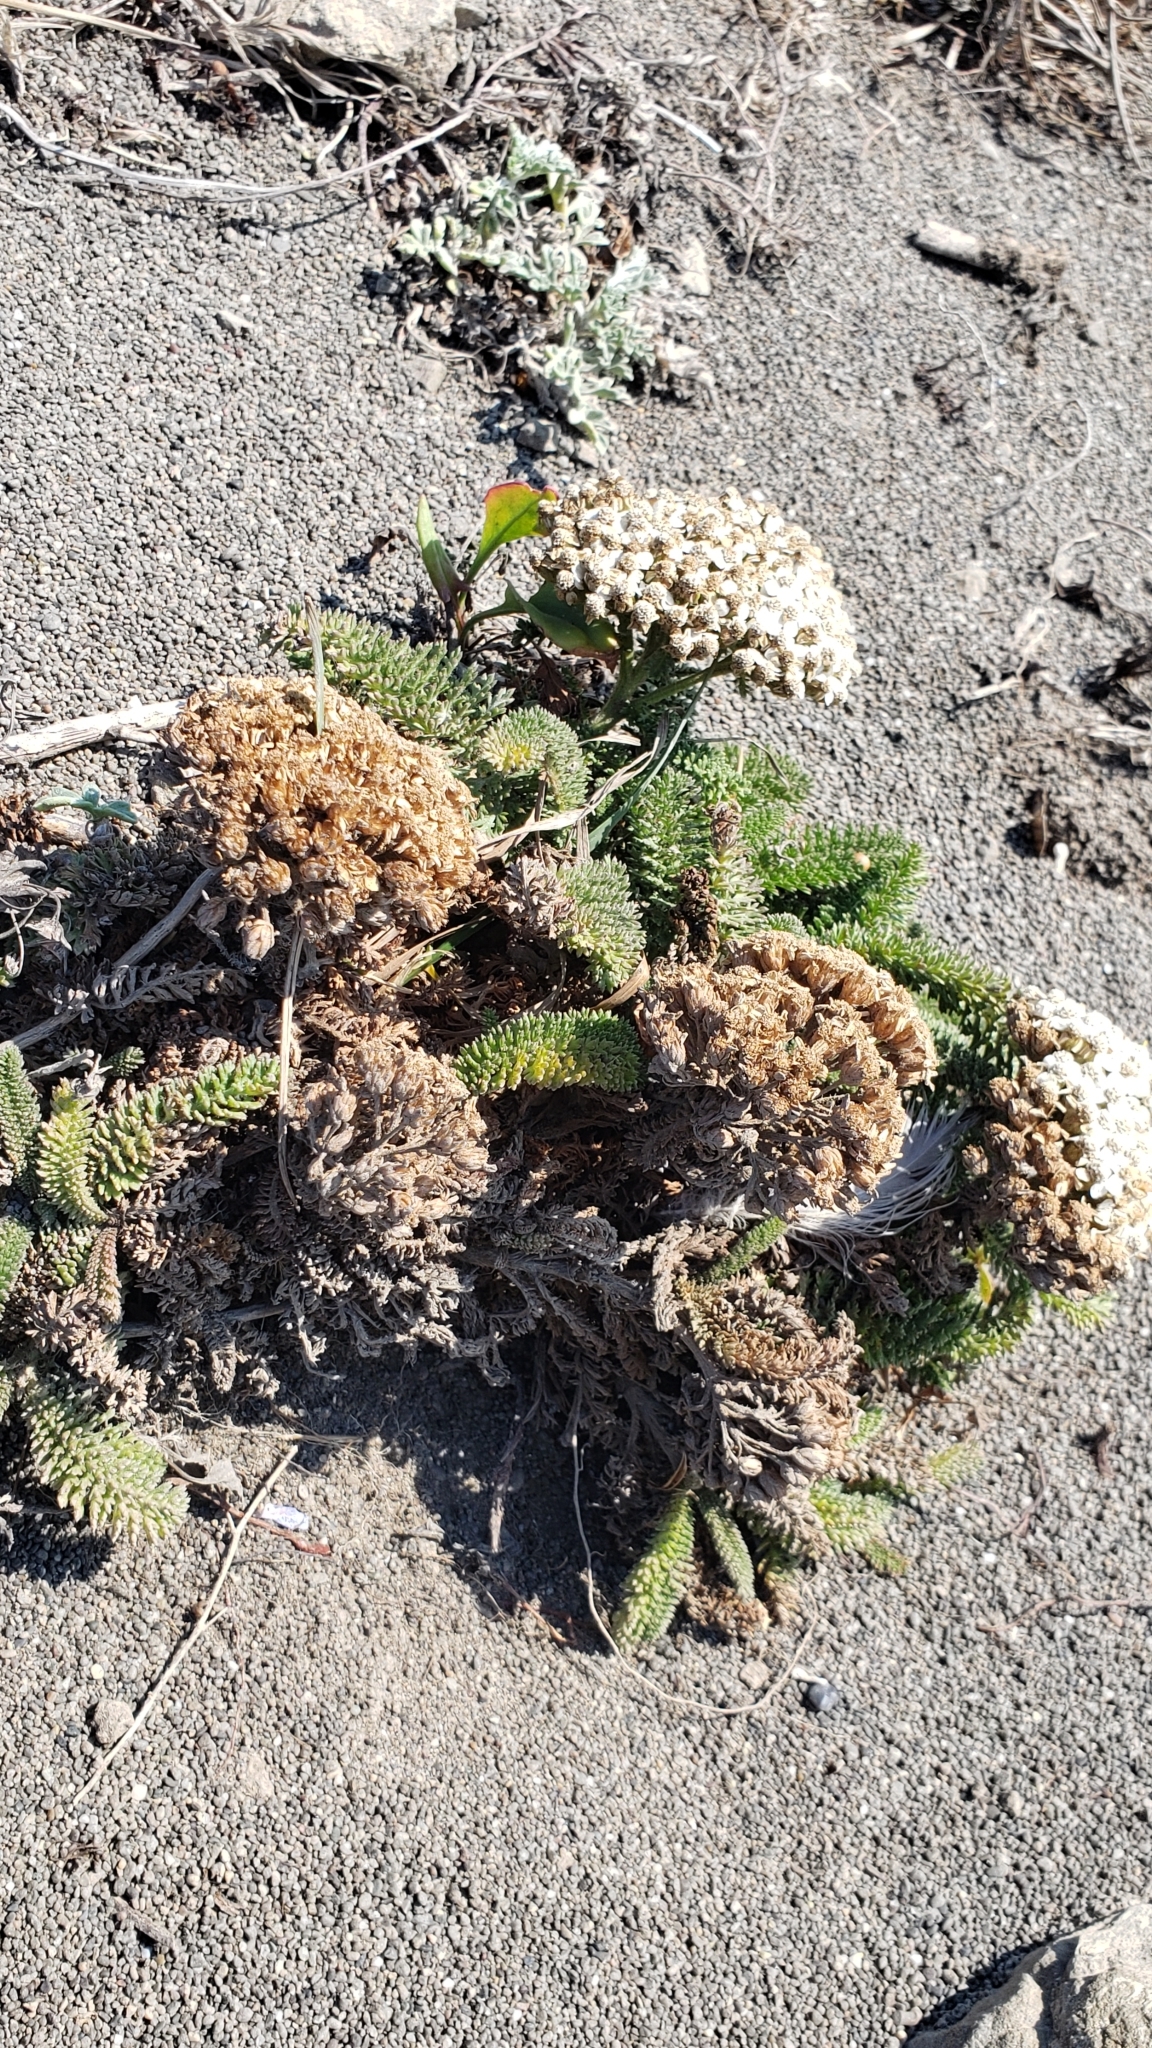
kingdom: Plantae
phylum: Tracheophyta
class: Magnoliopsida
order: Asterales
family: Asteraceae
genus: Achillea
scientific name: Achillea millefolium
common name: Yarrow
